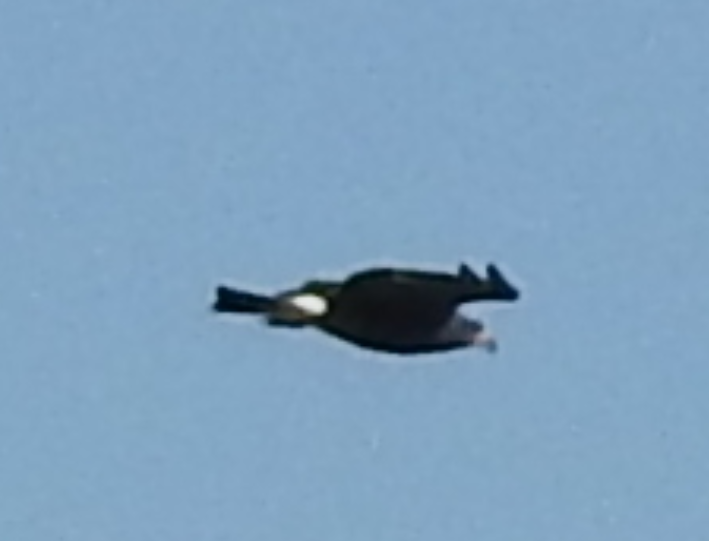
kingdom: Animalia
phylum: Chordata
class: Aves
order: Accipitriformes
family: Accipitridae
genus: Rostrhamus
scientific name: Rostrhamus sociabilis
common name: Snail kite
